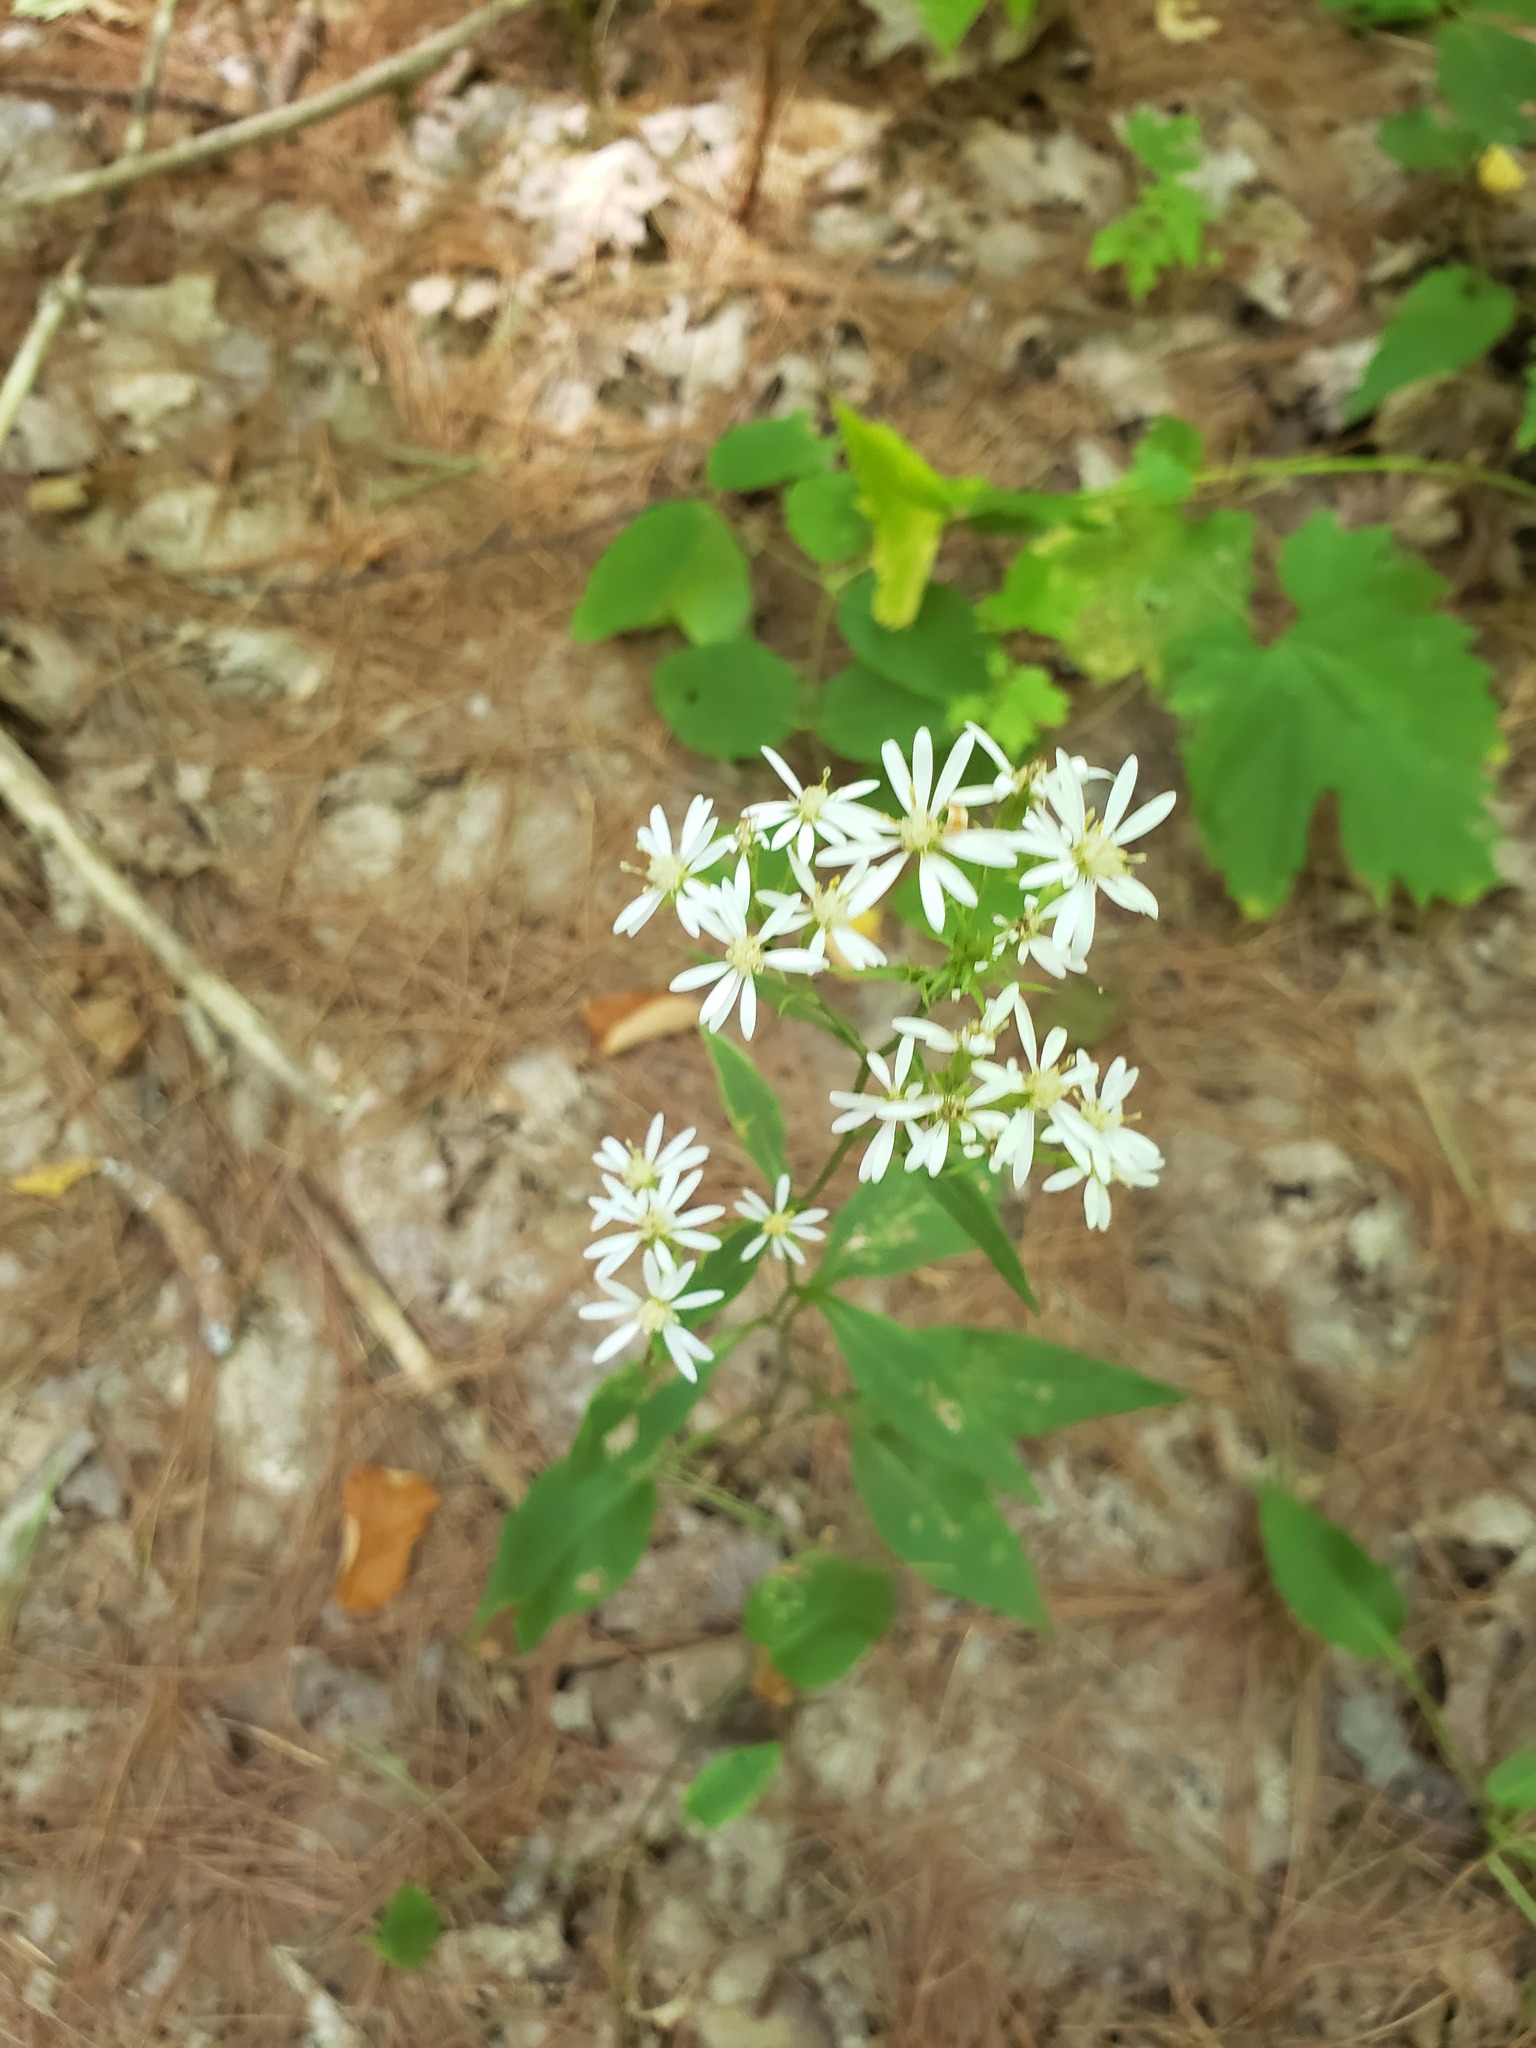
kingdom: Plantae
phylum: Tracheophyta
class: Magnoliopsida
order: Asterales
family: Asteraceae
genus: Symphyotrichum
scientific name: Symphyotrichum urophyllum
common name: Arrow-leaved aster
